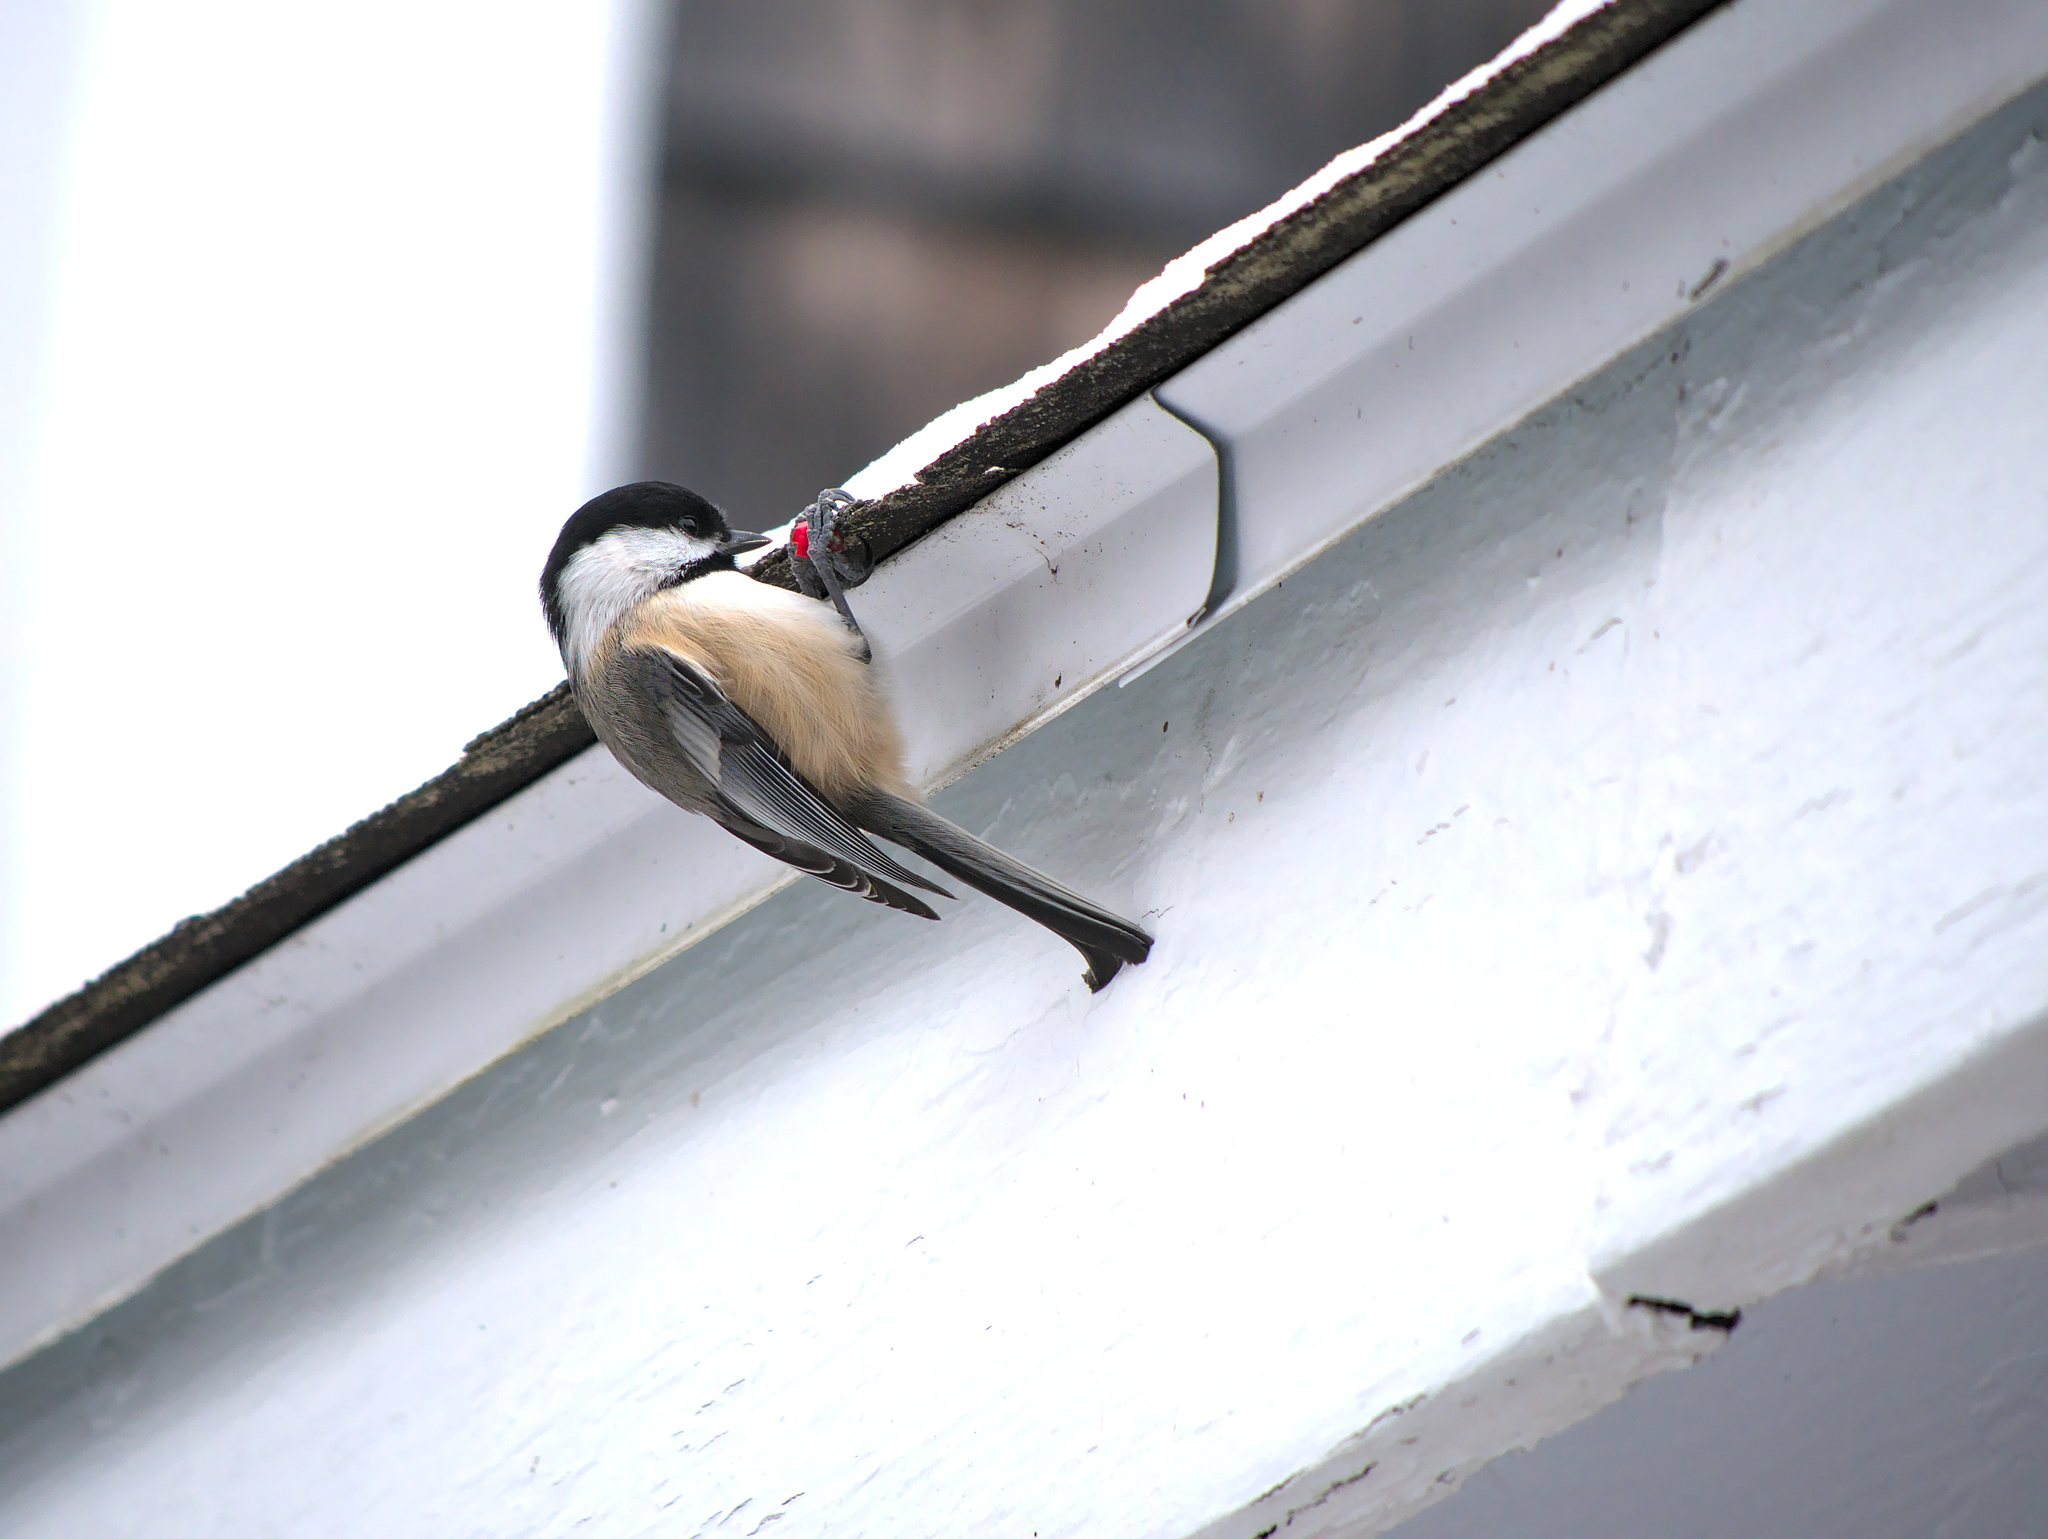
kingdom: Animalia
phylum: Chordata
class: Aves
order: Passeriformes
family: Paridae
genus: Poecile
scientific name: Poecile atricapillus
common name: Black-capped chickadee
